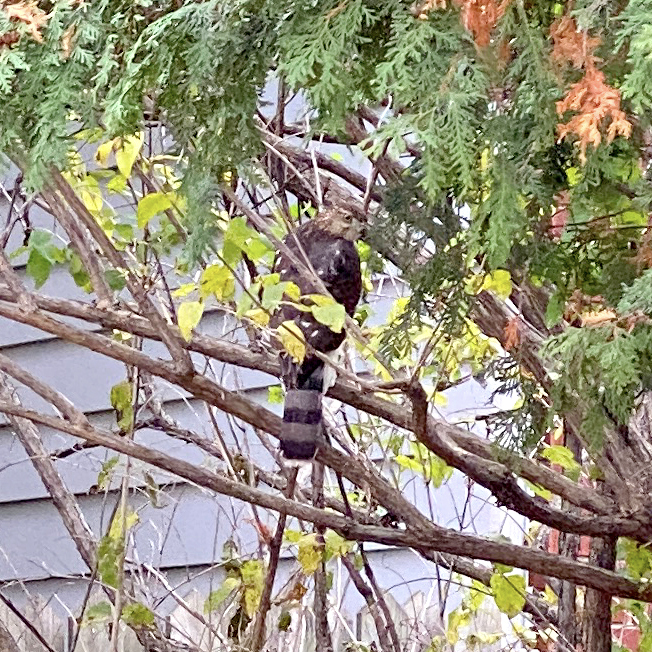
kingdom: Animalia
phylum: Chordata
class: Aves
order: Accipitriformes
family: Accipitridae
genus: Accipiter
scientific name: Accipiter cooperii
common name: Cooper's hawk
